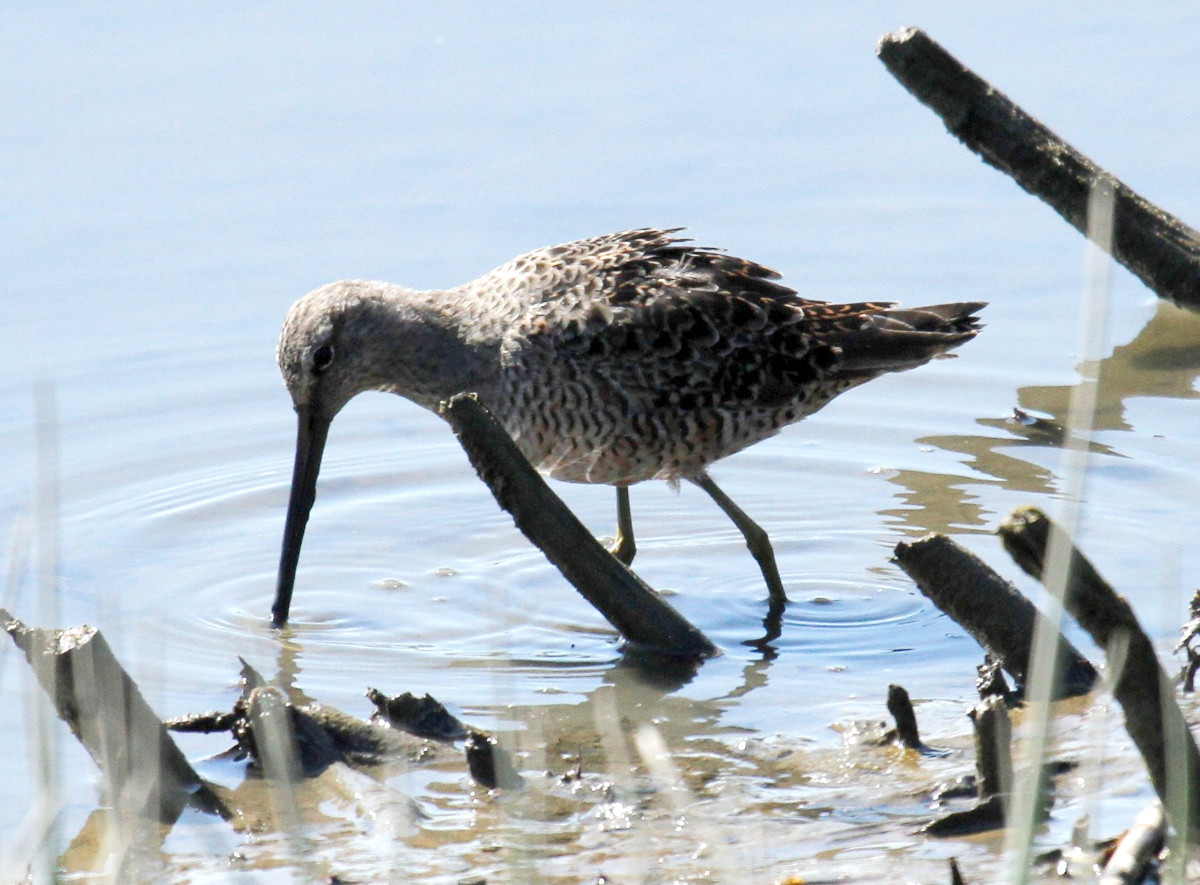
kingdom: Animalia
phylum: Chordata
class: Aves
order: Charadriiformes
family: Scolopacidae
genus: Limnodromus
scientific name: Limnodromus scolopaceus
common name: Long-billed dowitcher
